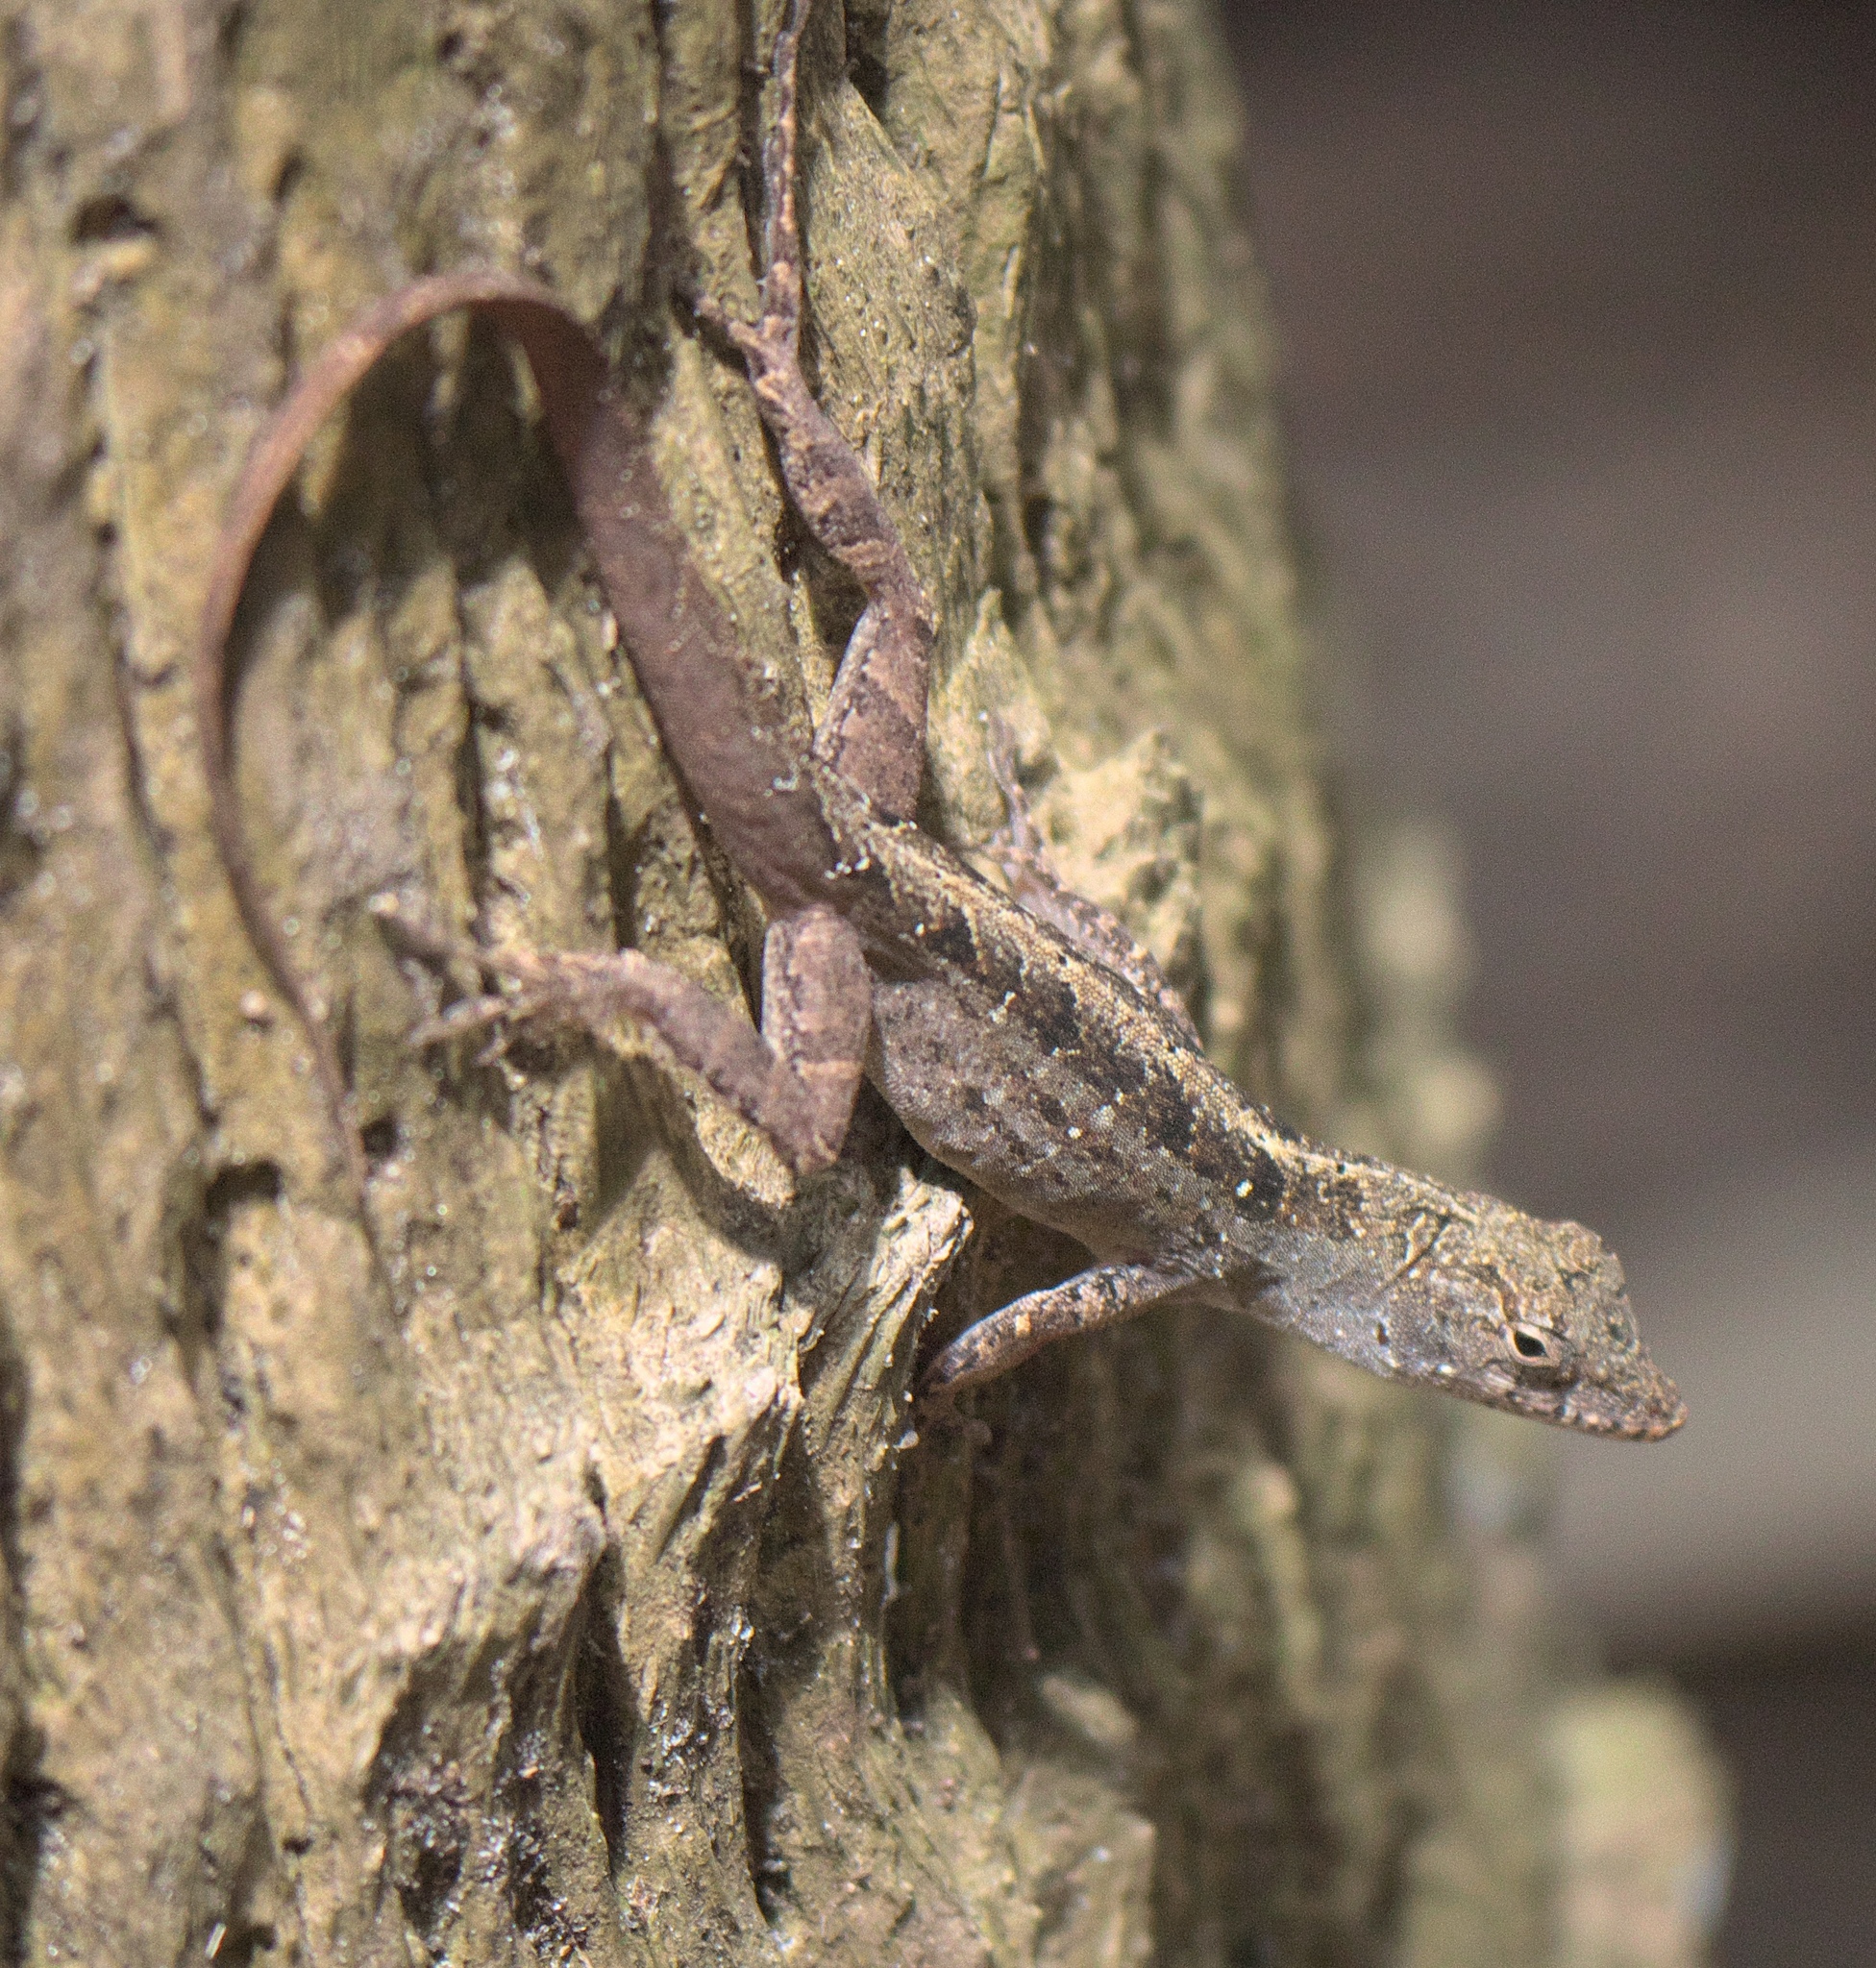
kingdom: Animalia
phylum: Chordata
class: Squamata
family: Dactyloidae
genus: Anolis
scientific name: Anolis sagrei
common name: Brown anole
